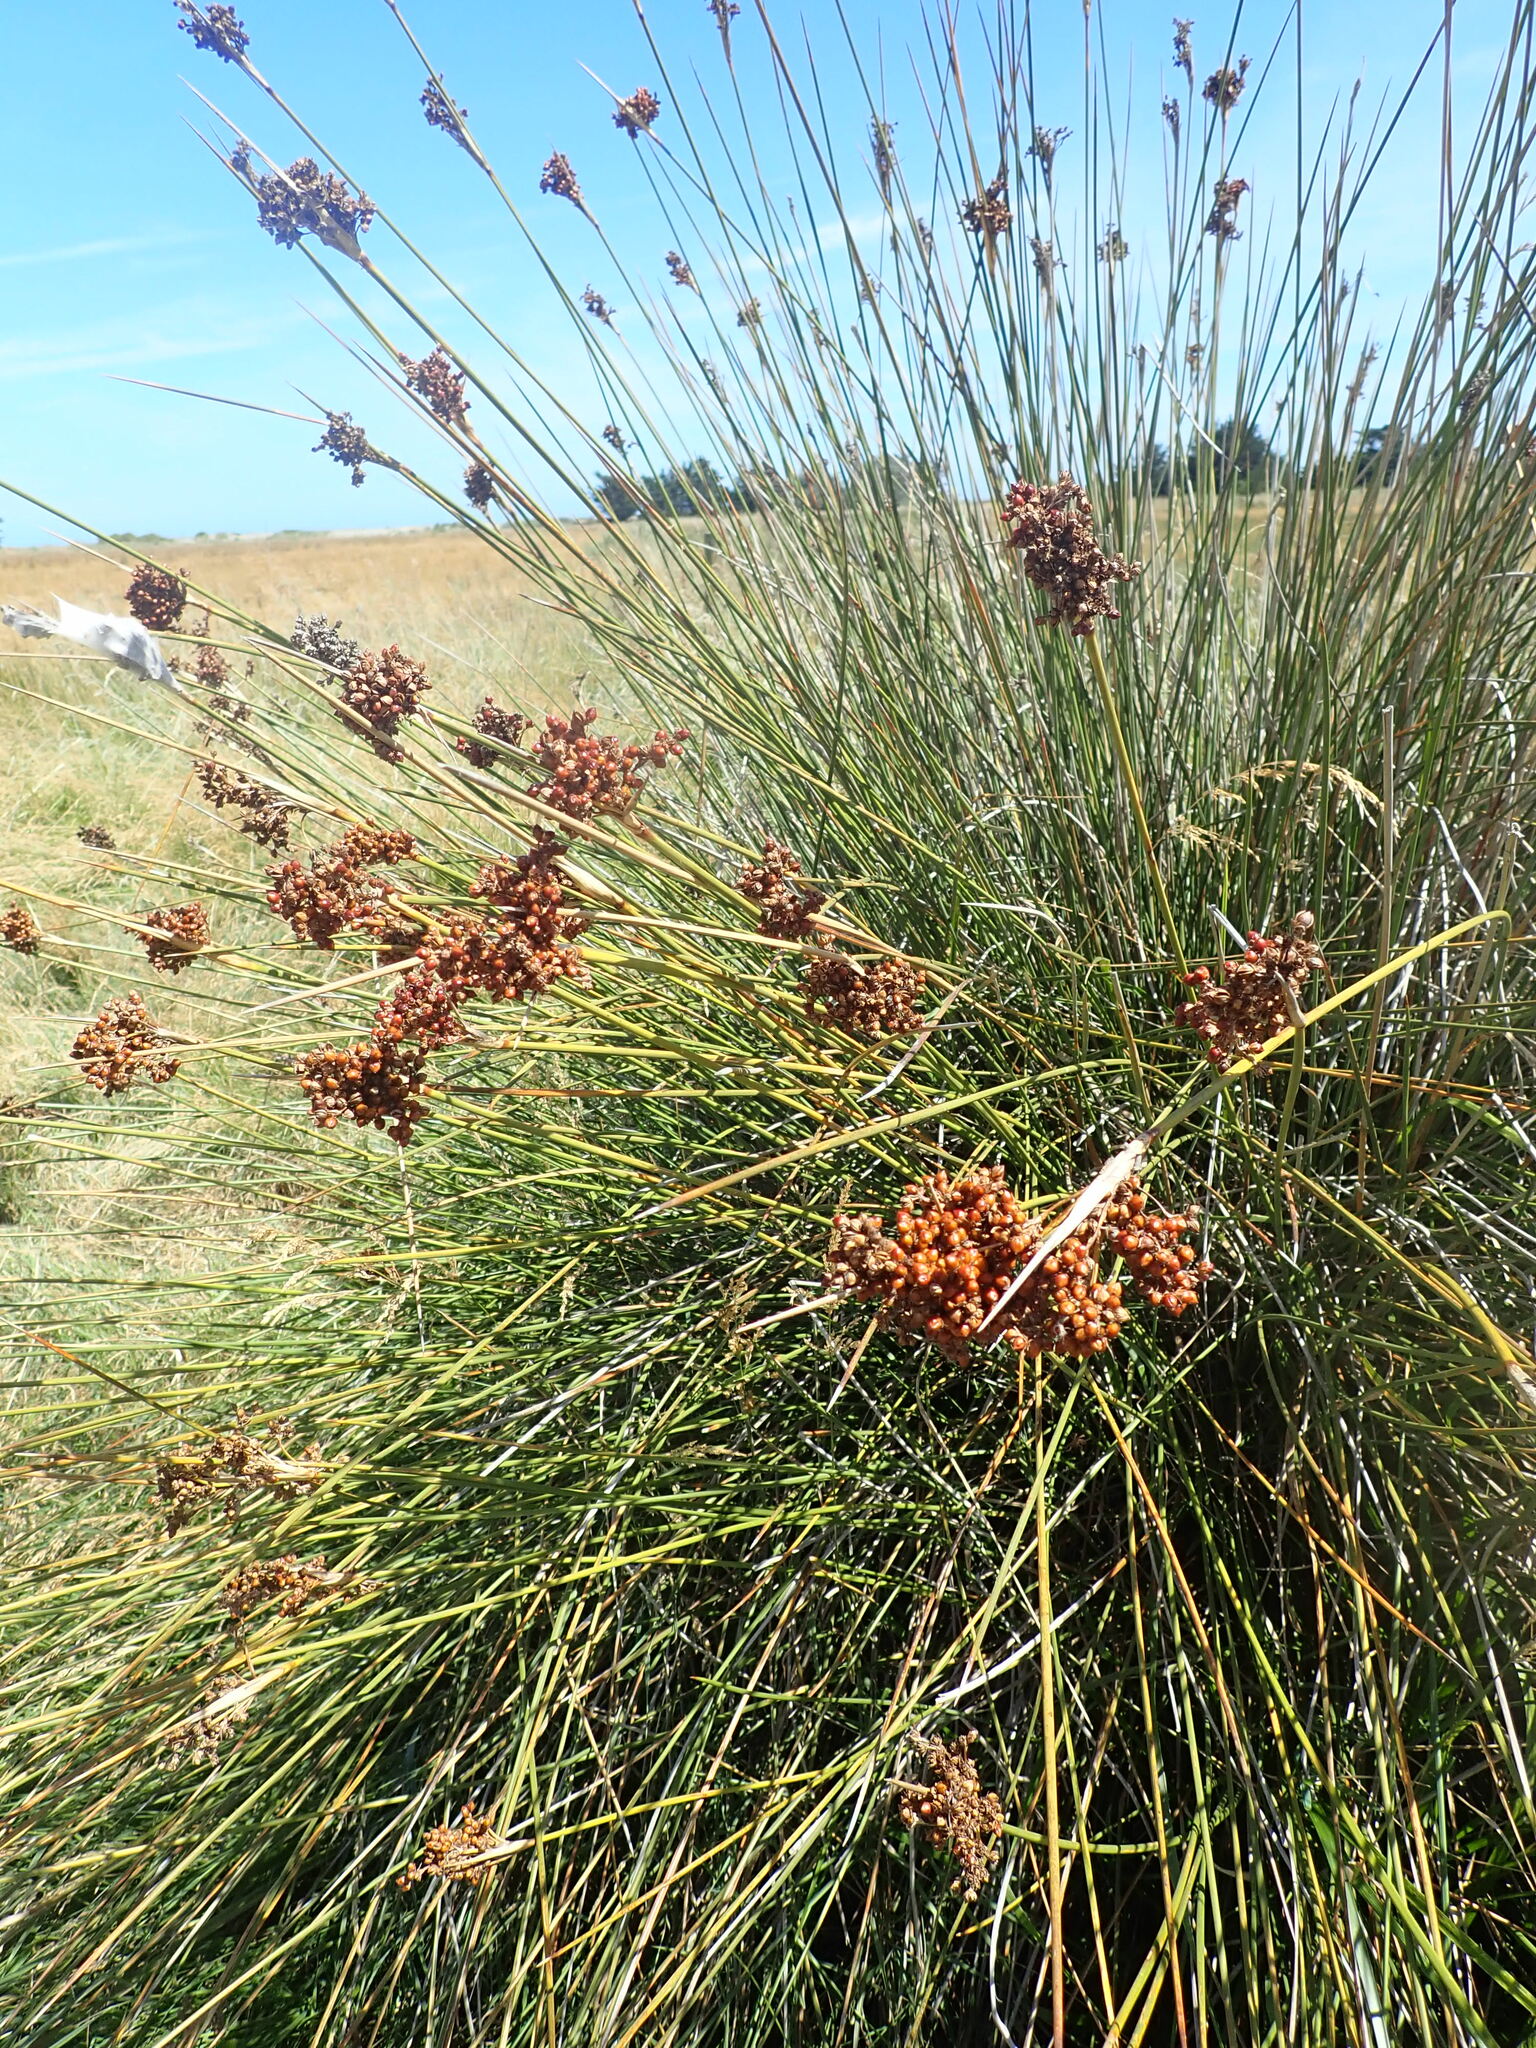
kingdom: Plantae
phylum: Tracheophyta
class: Liliopsida
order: Poales
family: Juncaceae
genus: Juncus
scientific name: Juncus acutus
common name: Sharp rush
